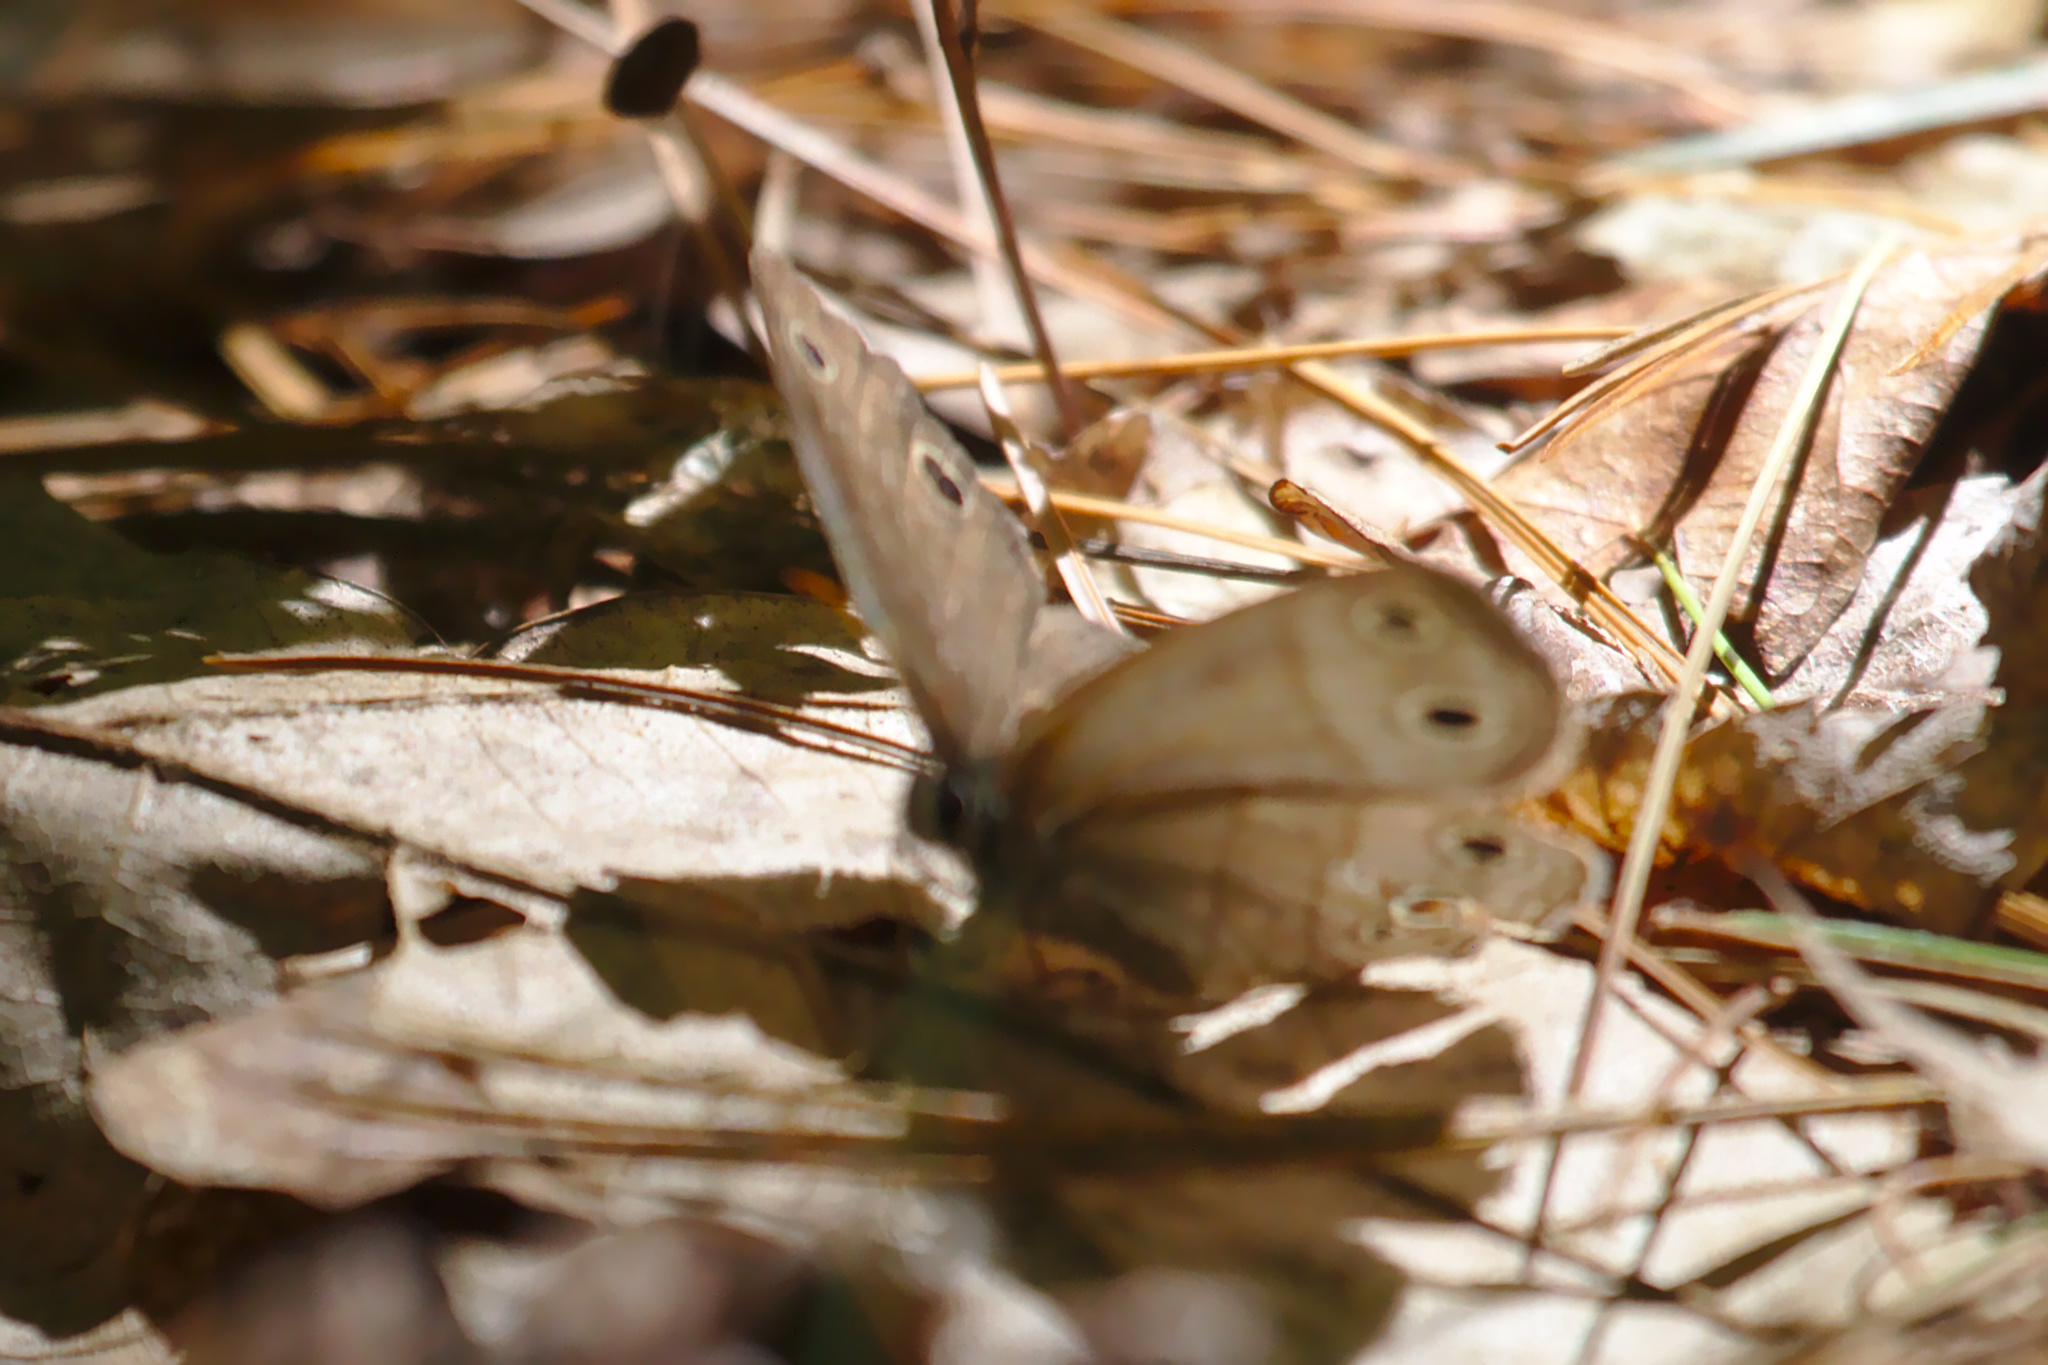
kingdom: Animalia
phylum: Arthropoda
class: Insecta
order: Lepidoptera
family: Nymphalidae
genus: Euptychia
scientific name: Euptychia cymela
